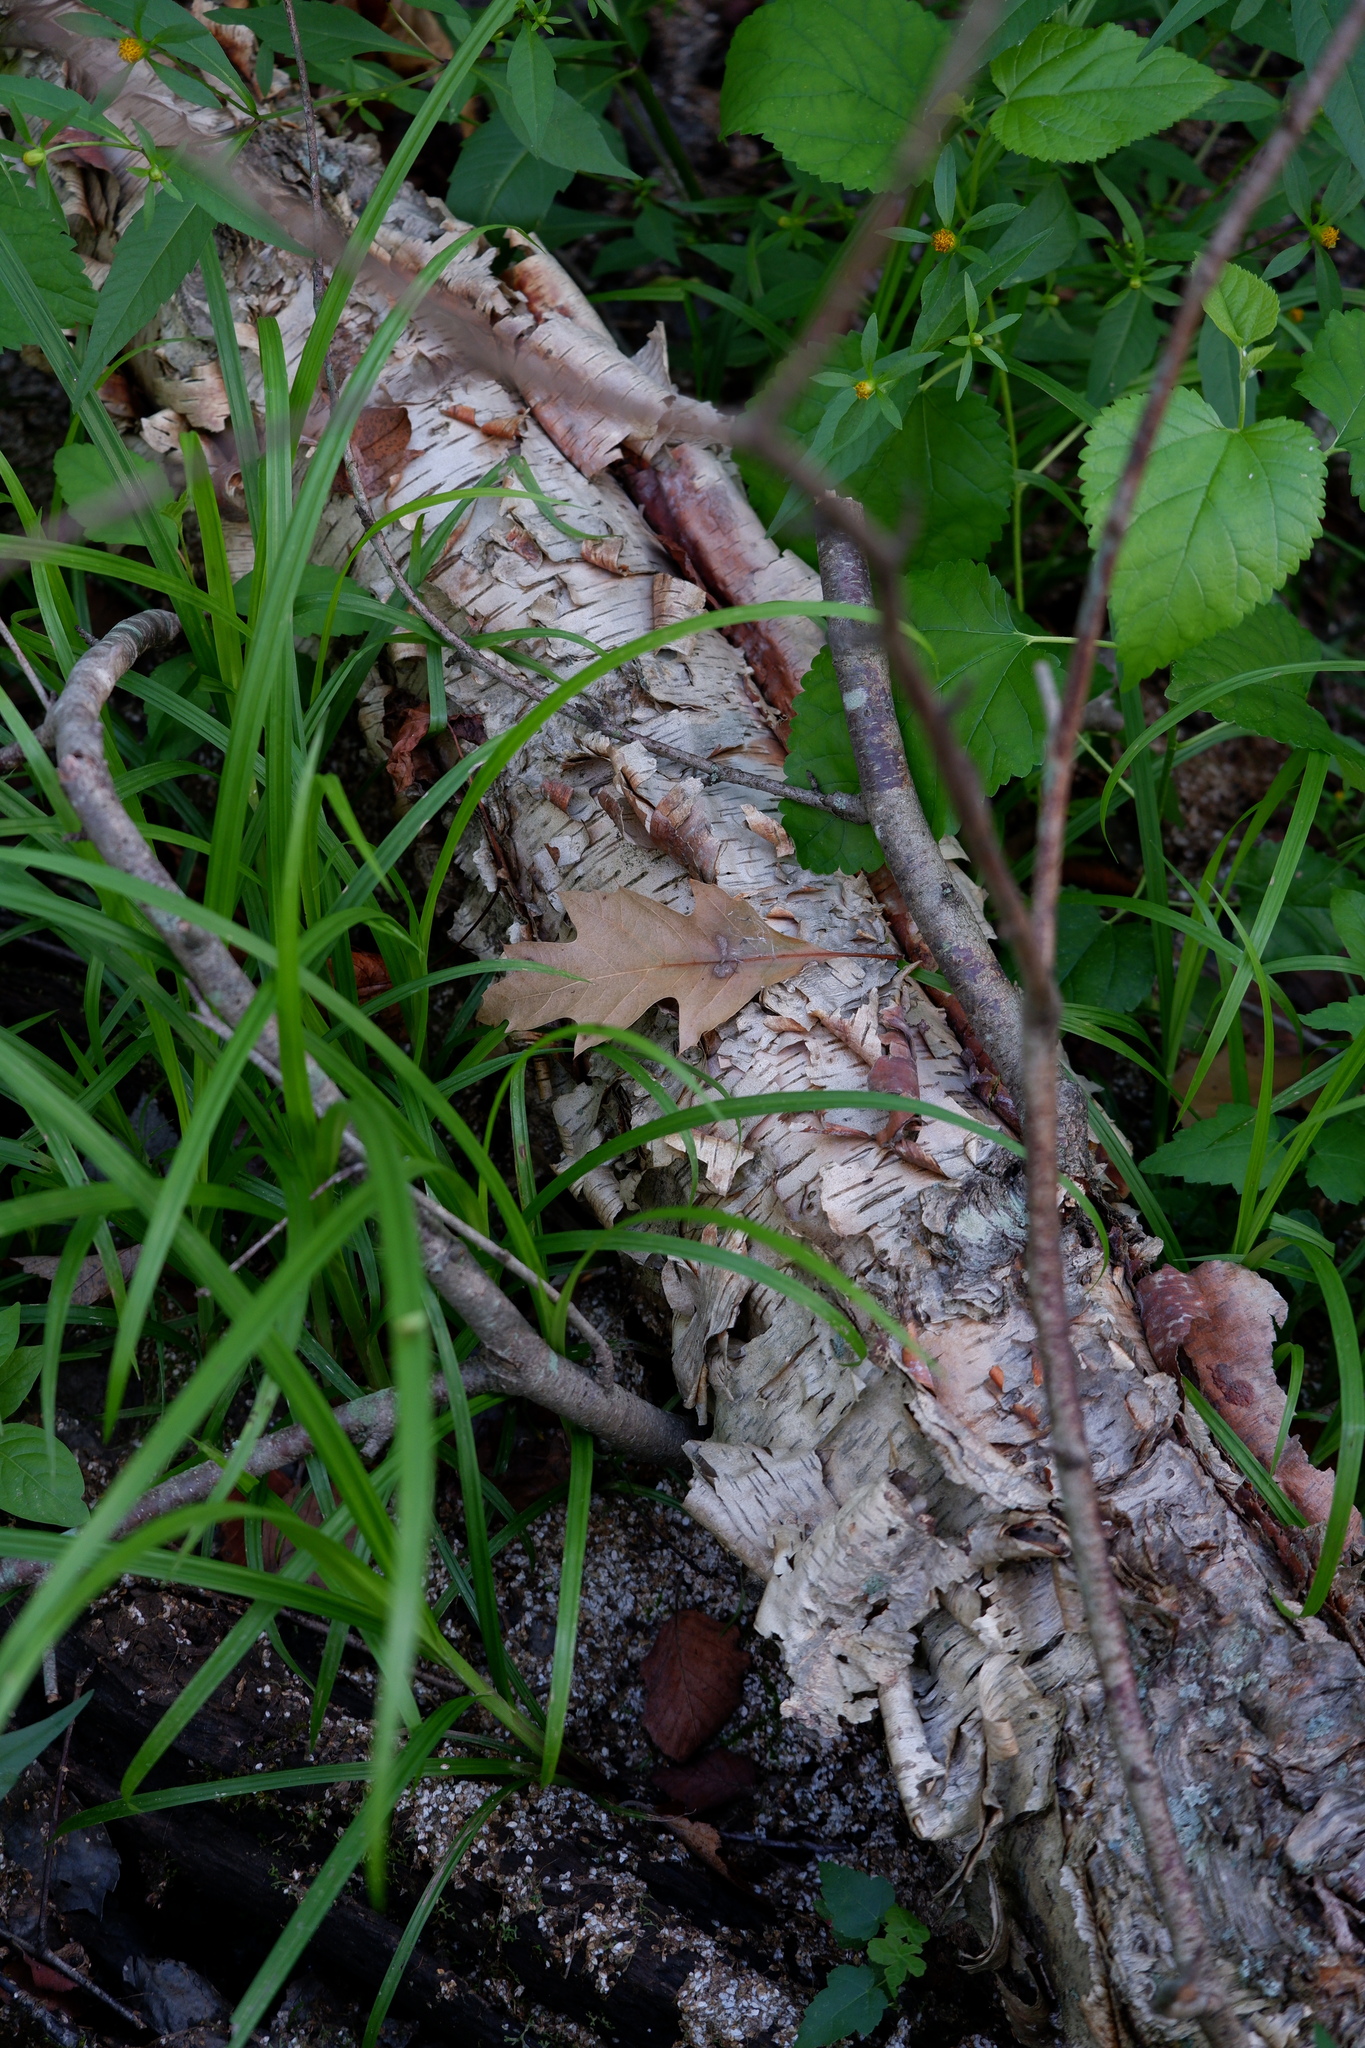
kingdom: Plantae
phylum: Tracheophyta
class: Magnoliopsida
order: Fagales
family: Betulaceae
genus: Betula
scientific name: Betula nigra
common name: Black birch
